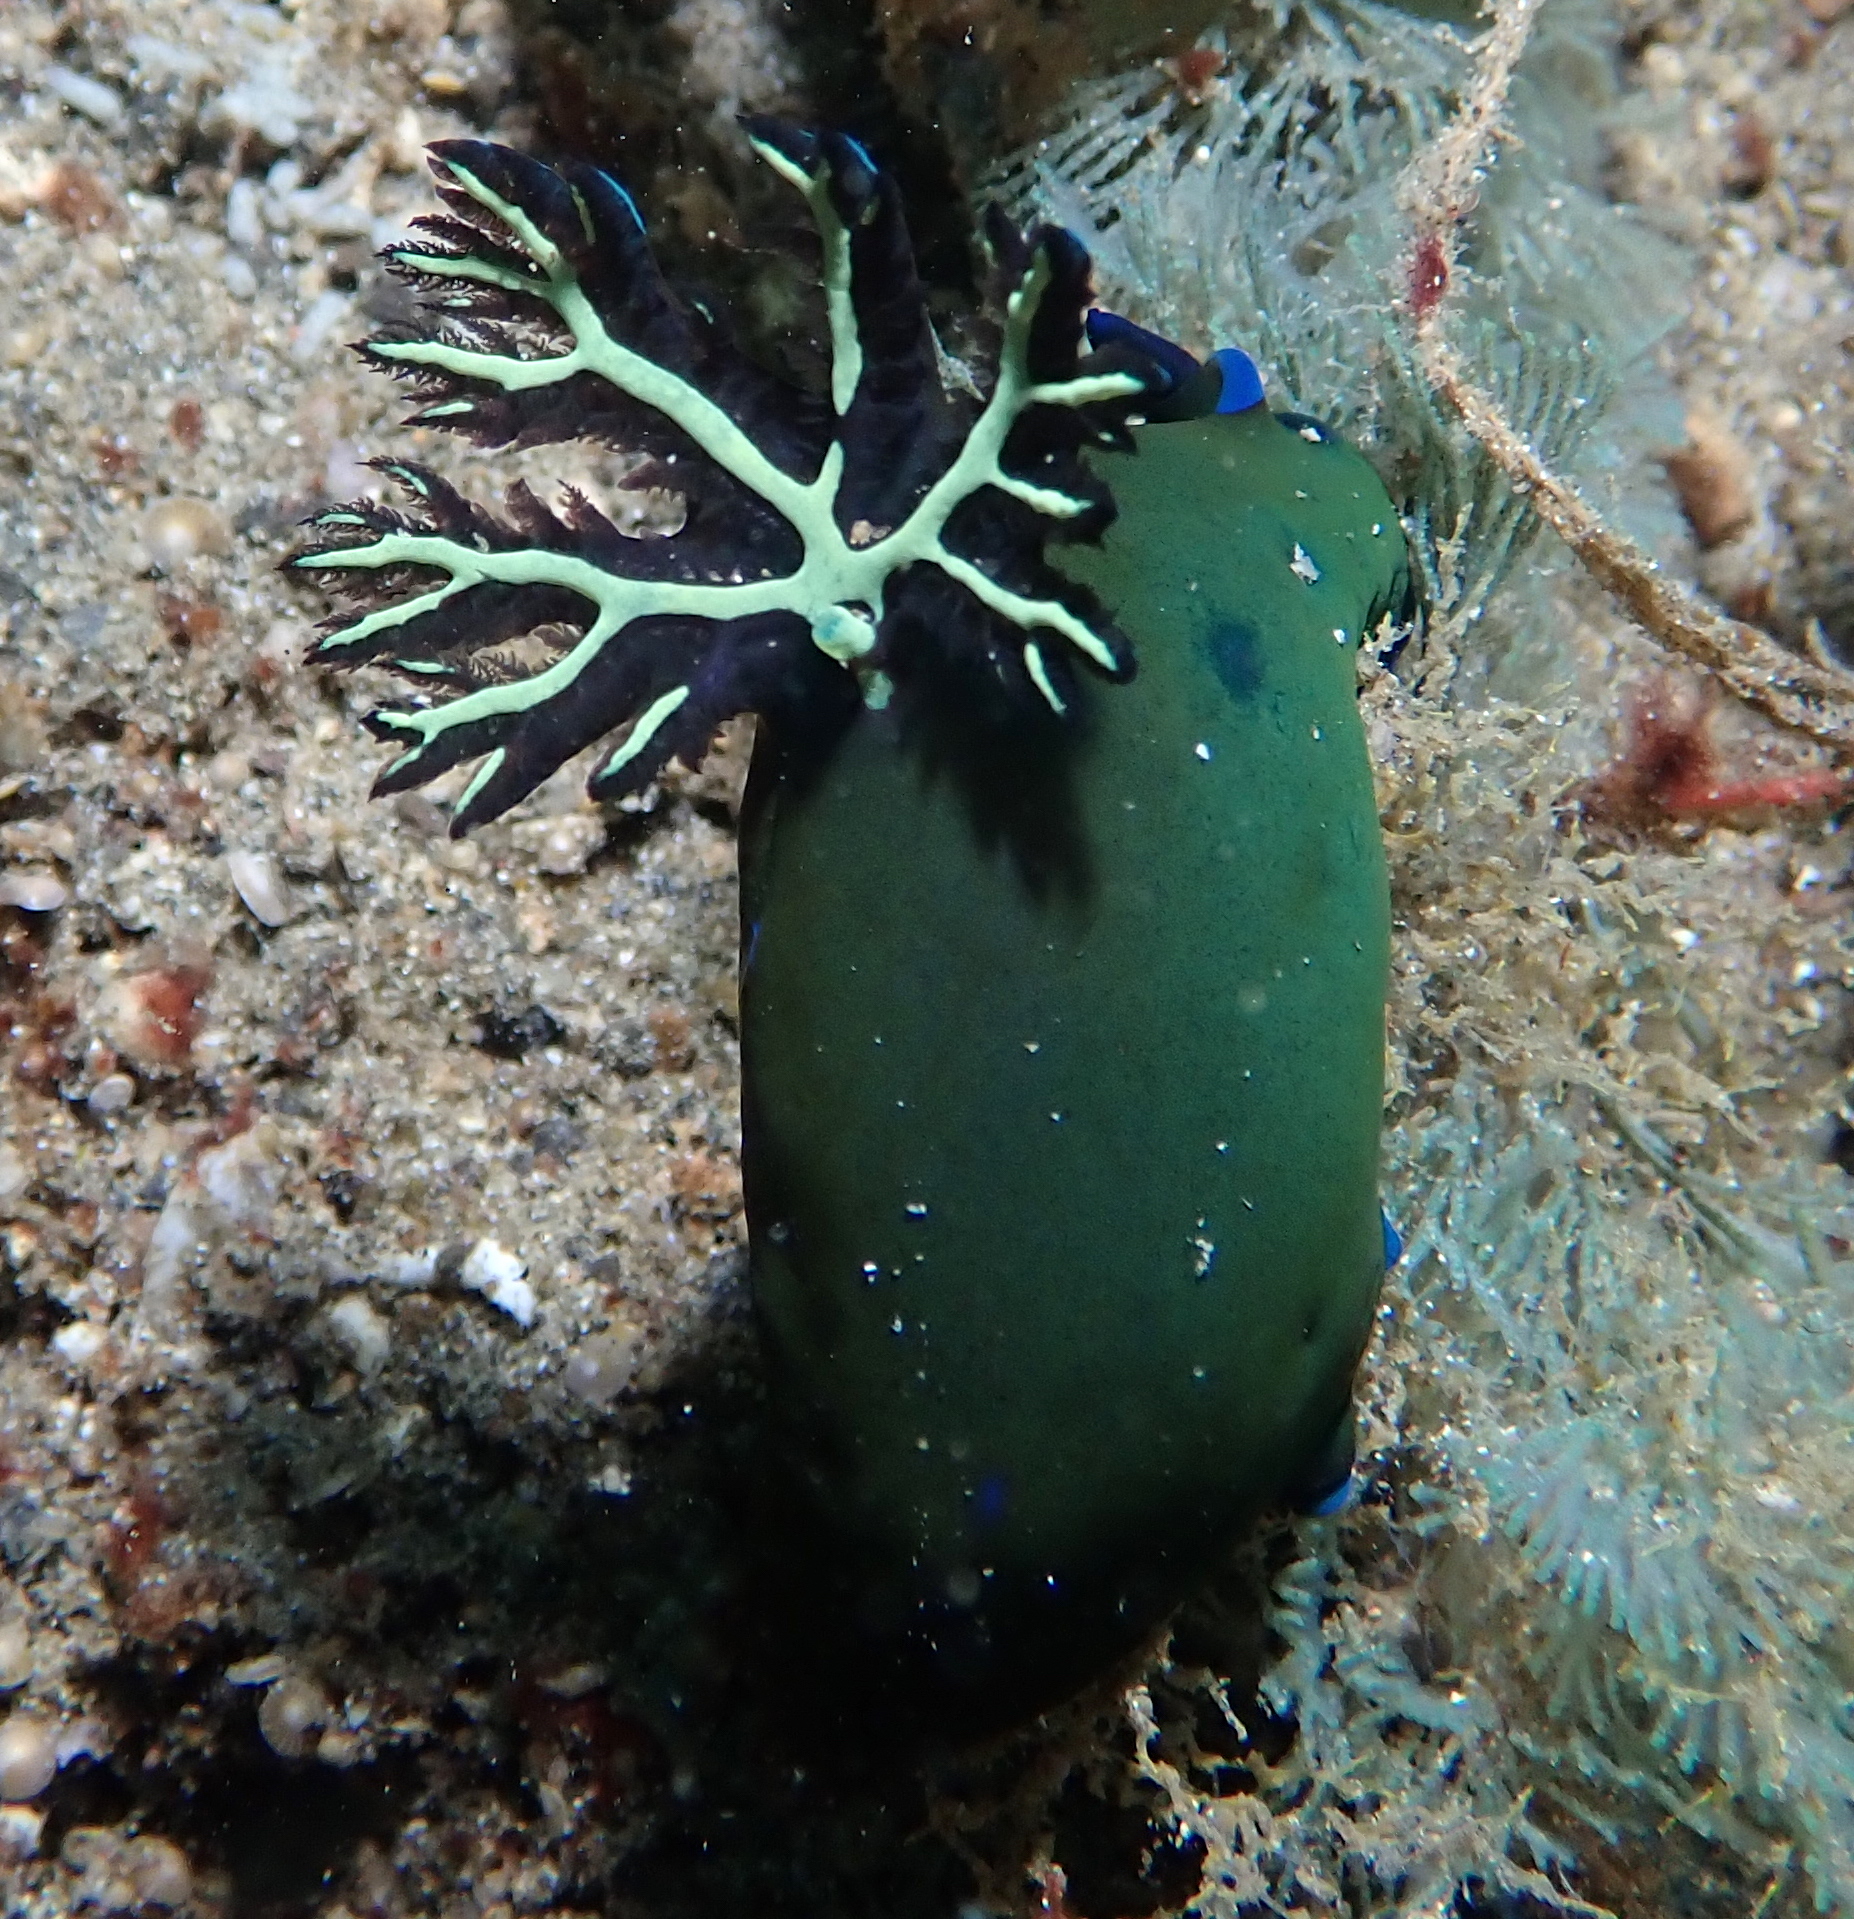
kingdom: Animalia
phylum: Mollusca
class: Gastropoda
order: Nudibranchia
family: Polyceridae
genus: Tambja
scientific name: Tambja morosa
